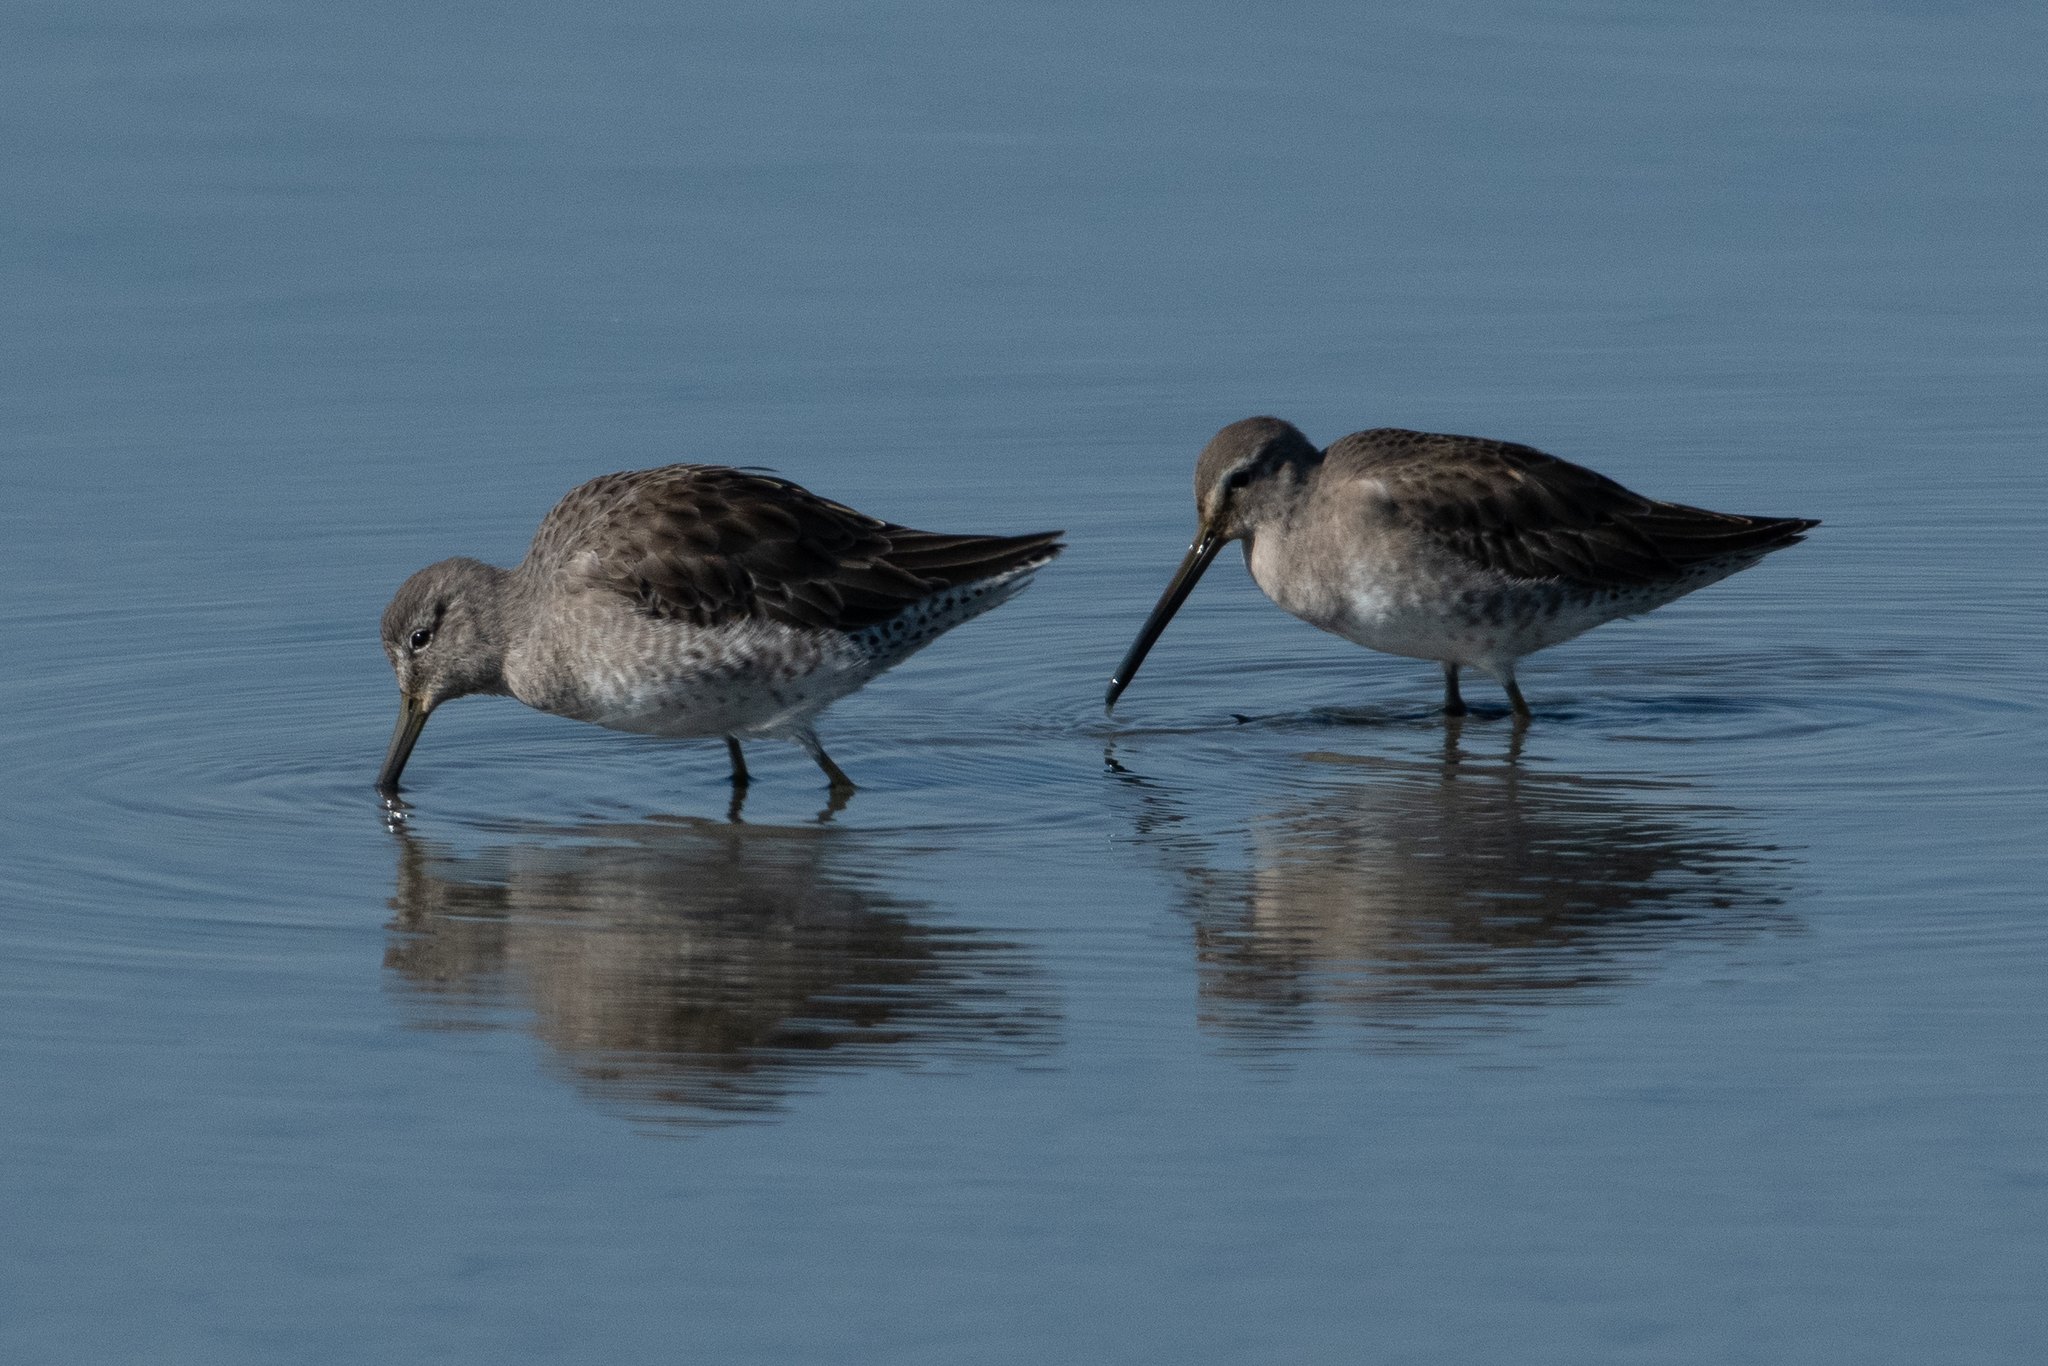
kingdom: Animalia
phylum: Chordata
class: Aves
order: Charadriiformes
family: Scolopacidae
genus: Limnodromus
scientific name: Limnodromus scolopaceus
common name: Long-billed dowitcher
